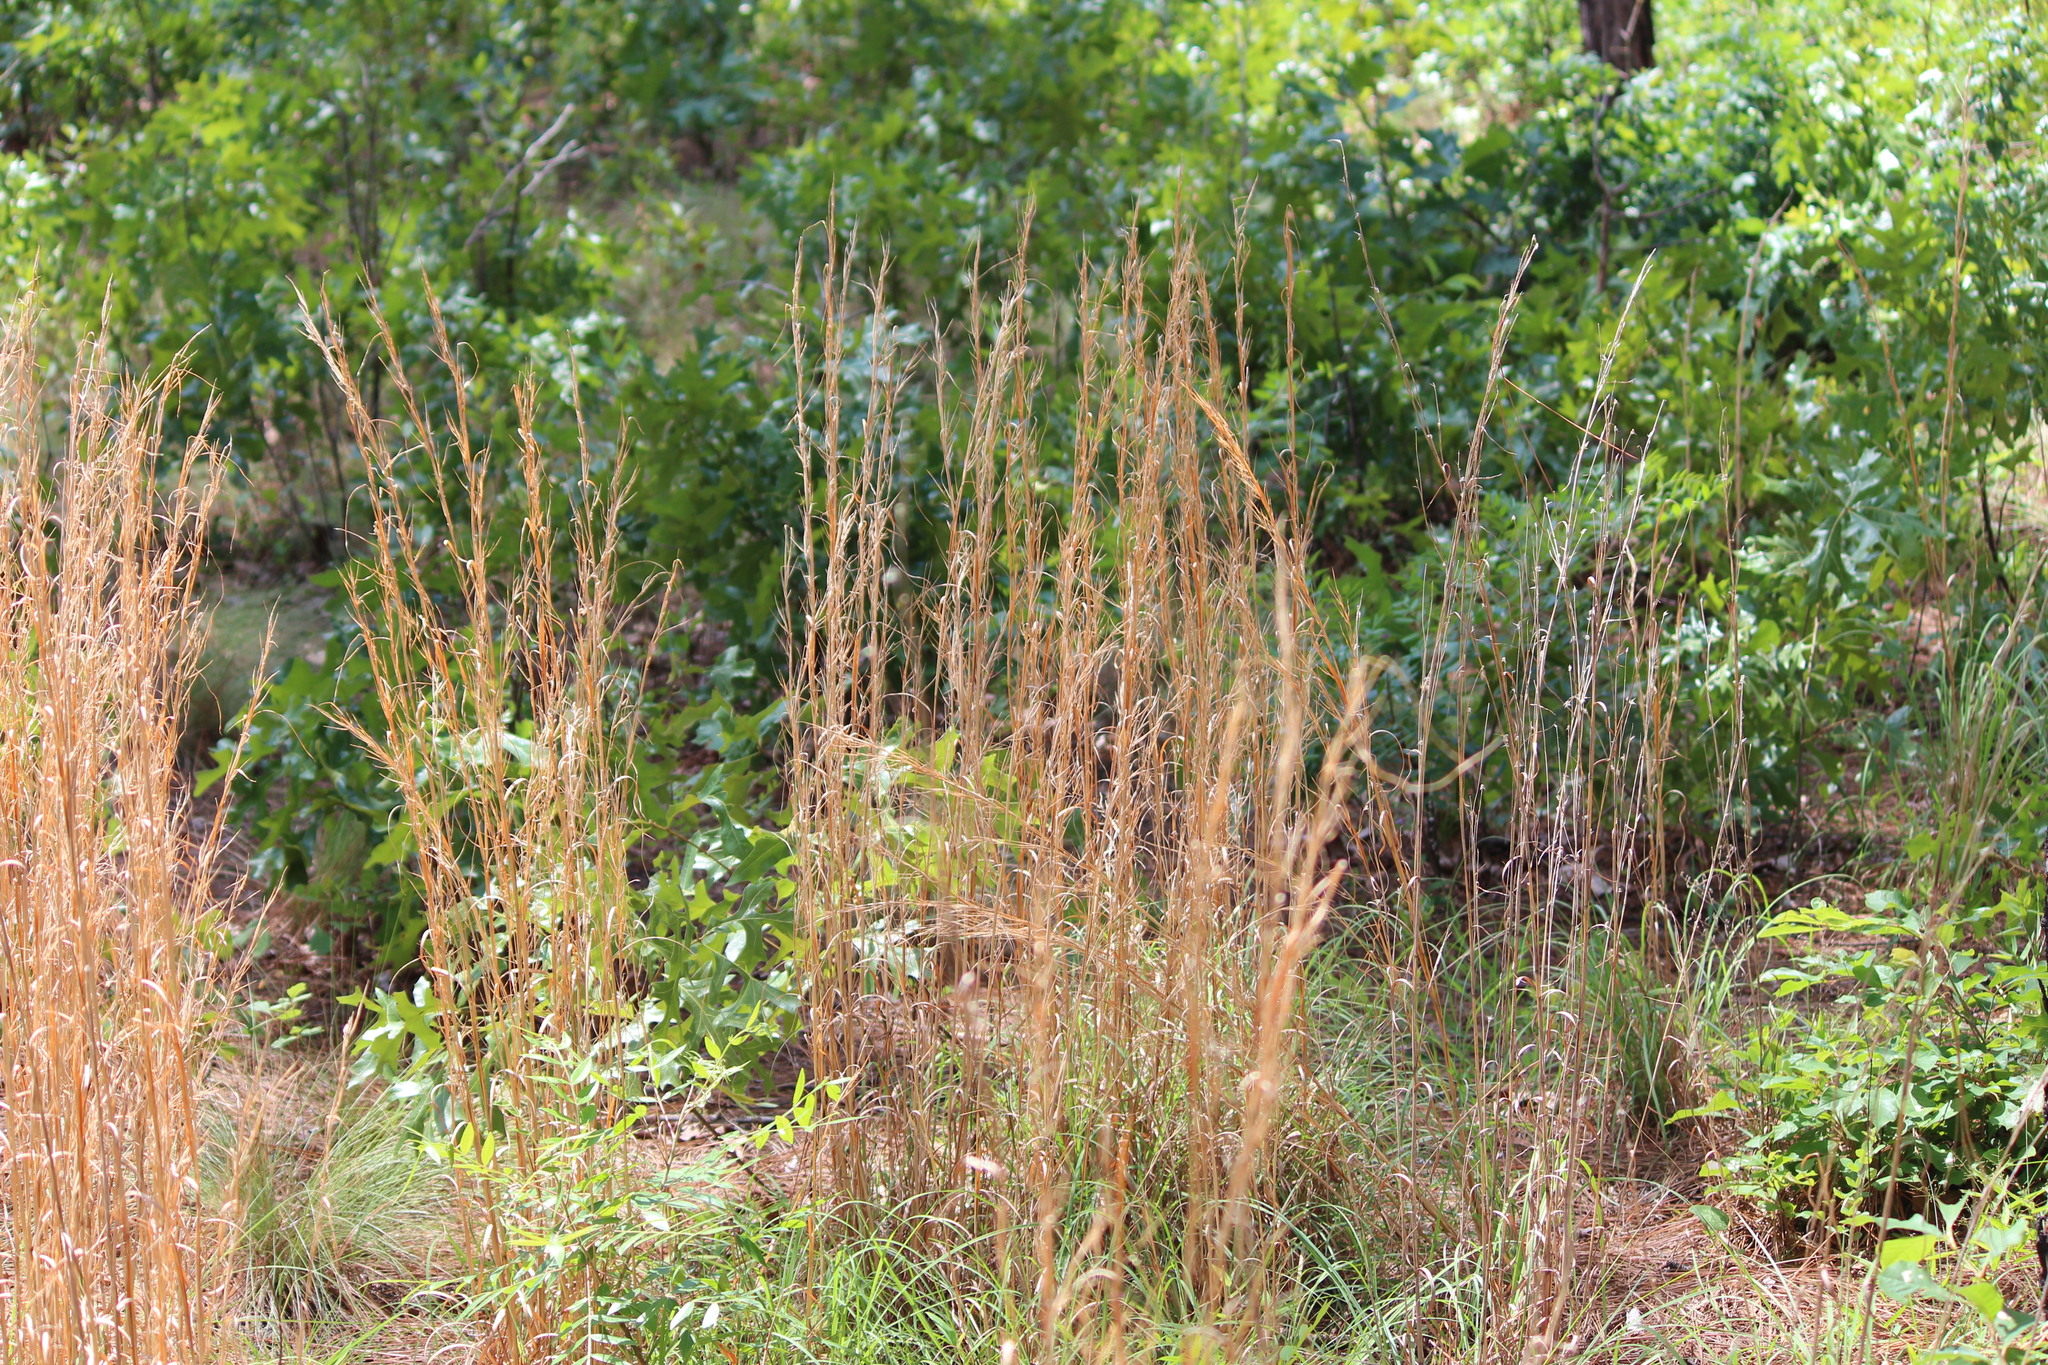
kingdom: Plantae
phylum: Tracheophyta
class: Liliopsida
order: Poales
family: Poaceae
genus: Andropogon
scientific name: Andropogon virginicus
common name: Broomsedge bluestem
